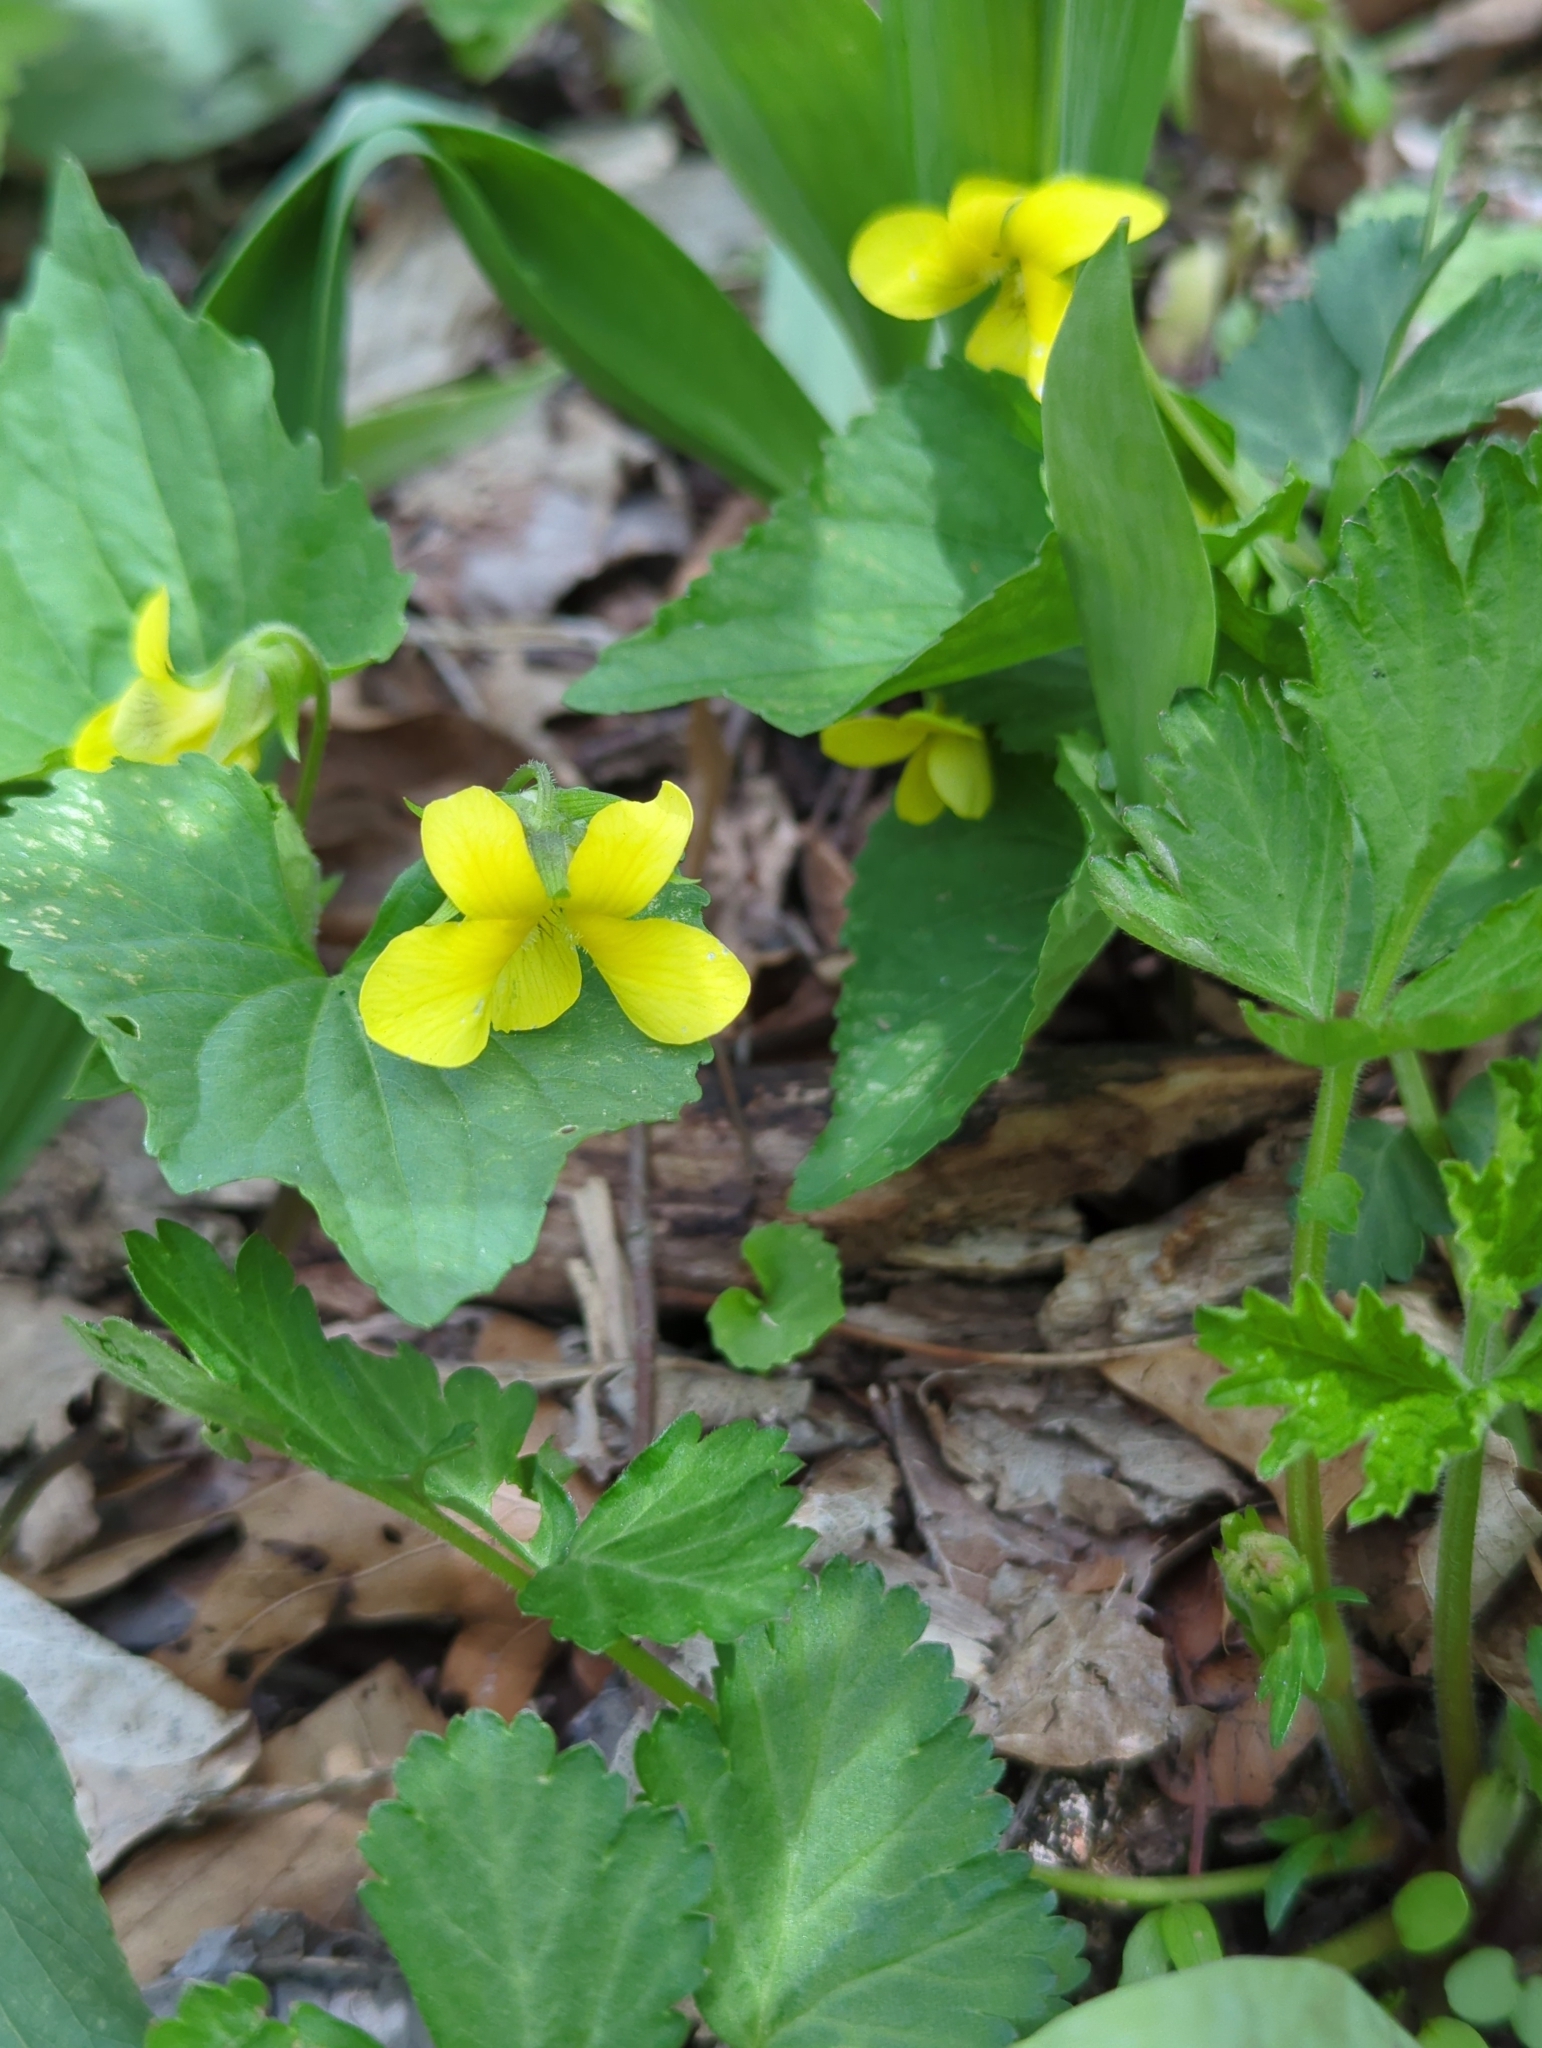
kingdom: Plantae
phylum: Tracheophyta
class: Magnoliopsida
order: Malpighiales
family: Violaceae
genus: Viola
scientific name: Viola eriocarpa
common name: Smooth yellow violet
